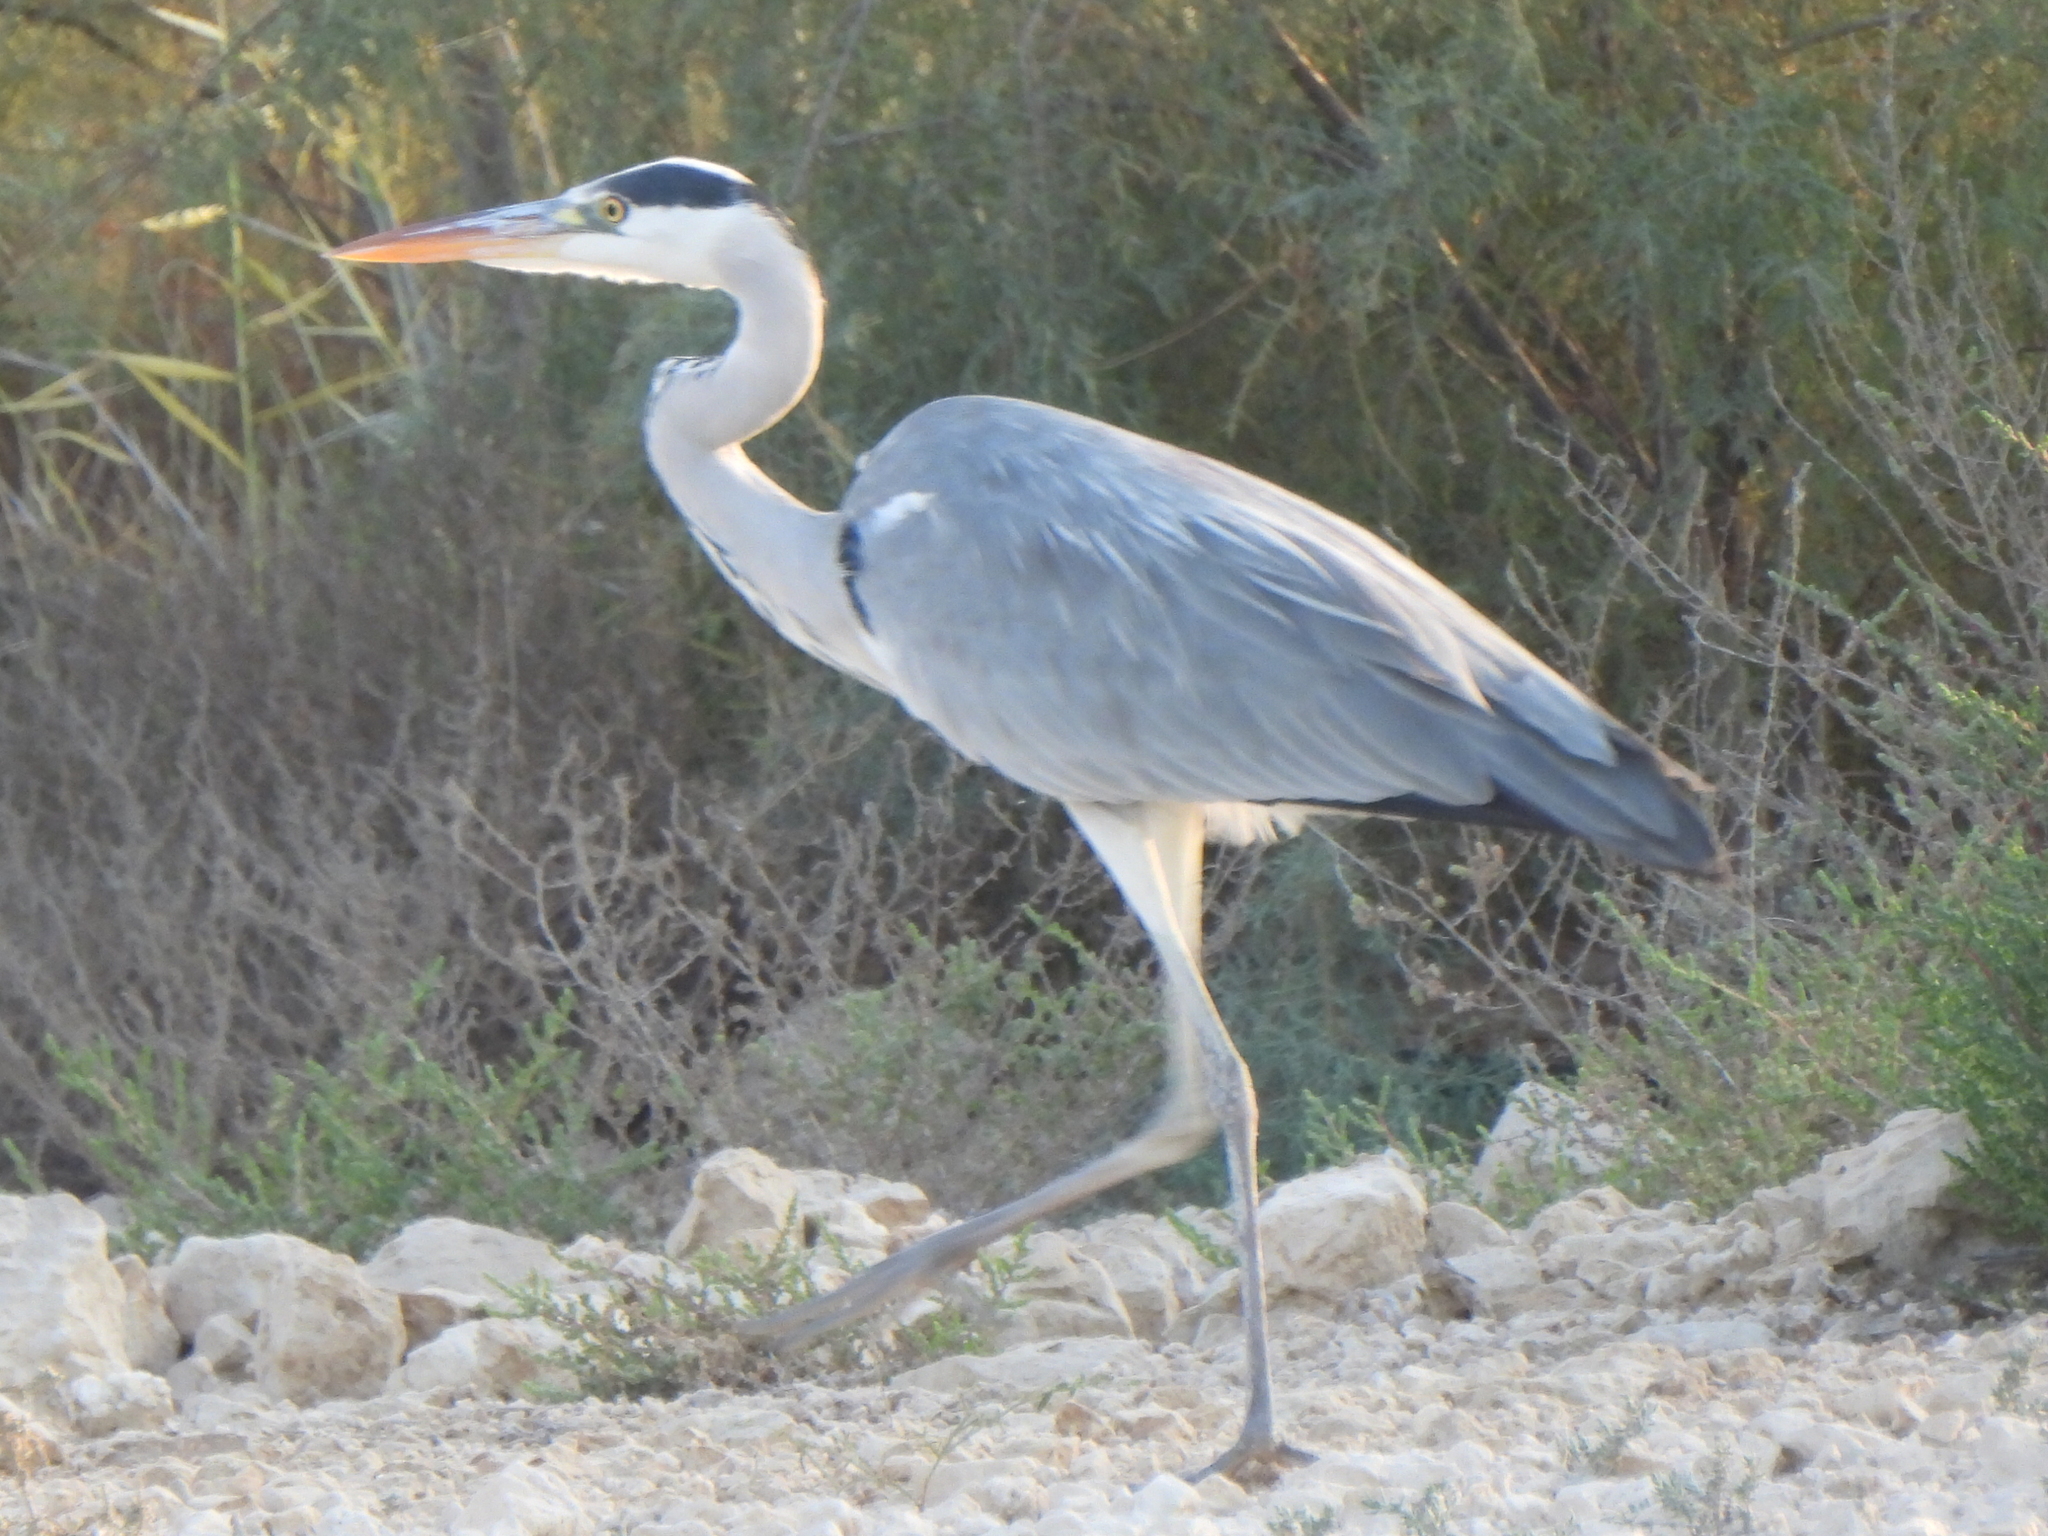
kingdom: Animalia
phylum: Chordata
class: Aves
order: Pelecaniformes
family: Ardeidae
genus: Ardea
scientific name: Ardea cinerea
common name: Grey heron
